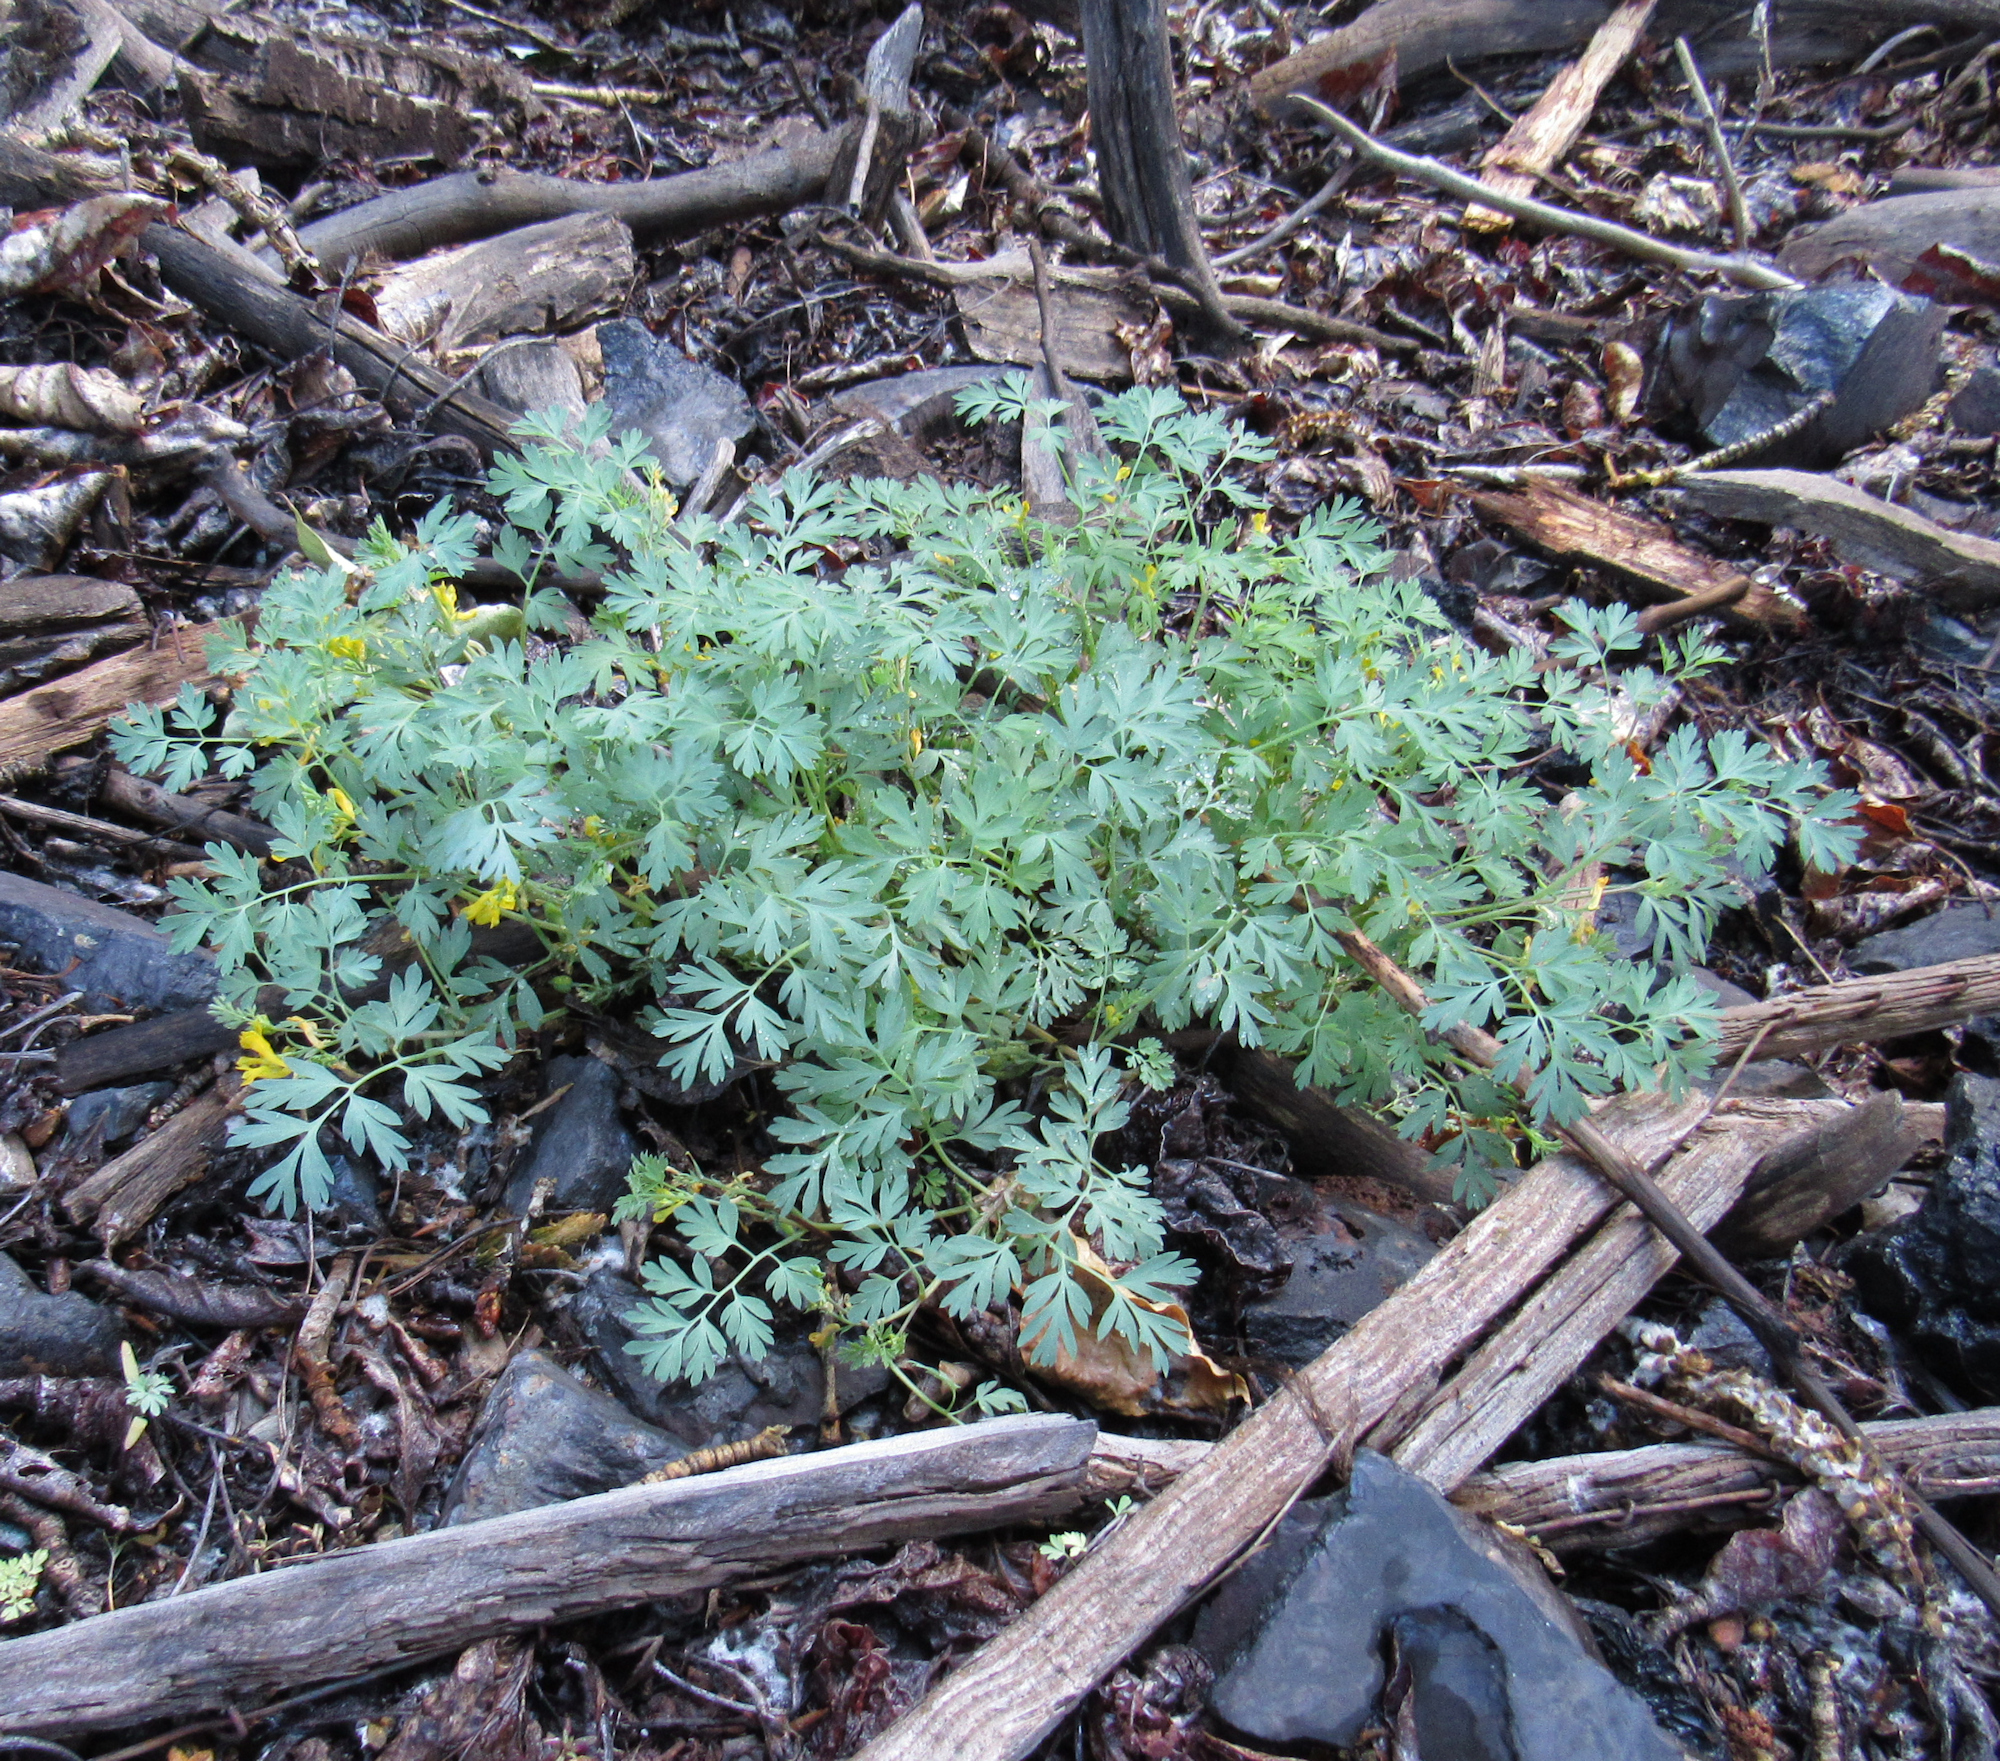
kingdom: Plantae
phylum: Tracheophyta
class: Magnoliopsida
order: Ranunculales
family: Papaveraceae
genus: Corydalis
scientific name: Corydalis aurea
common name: Golden corydalis
